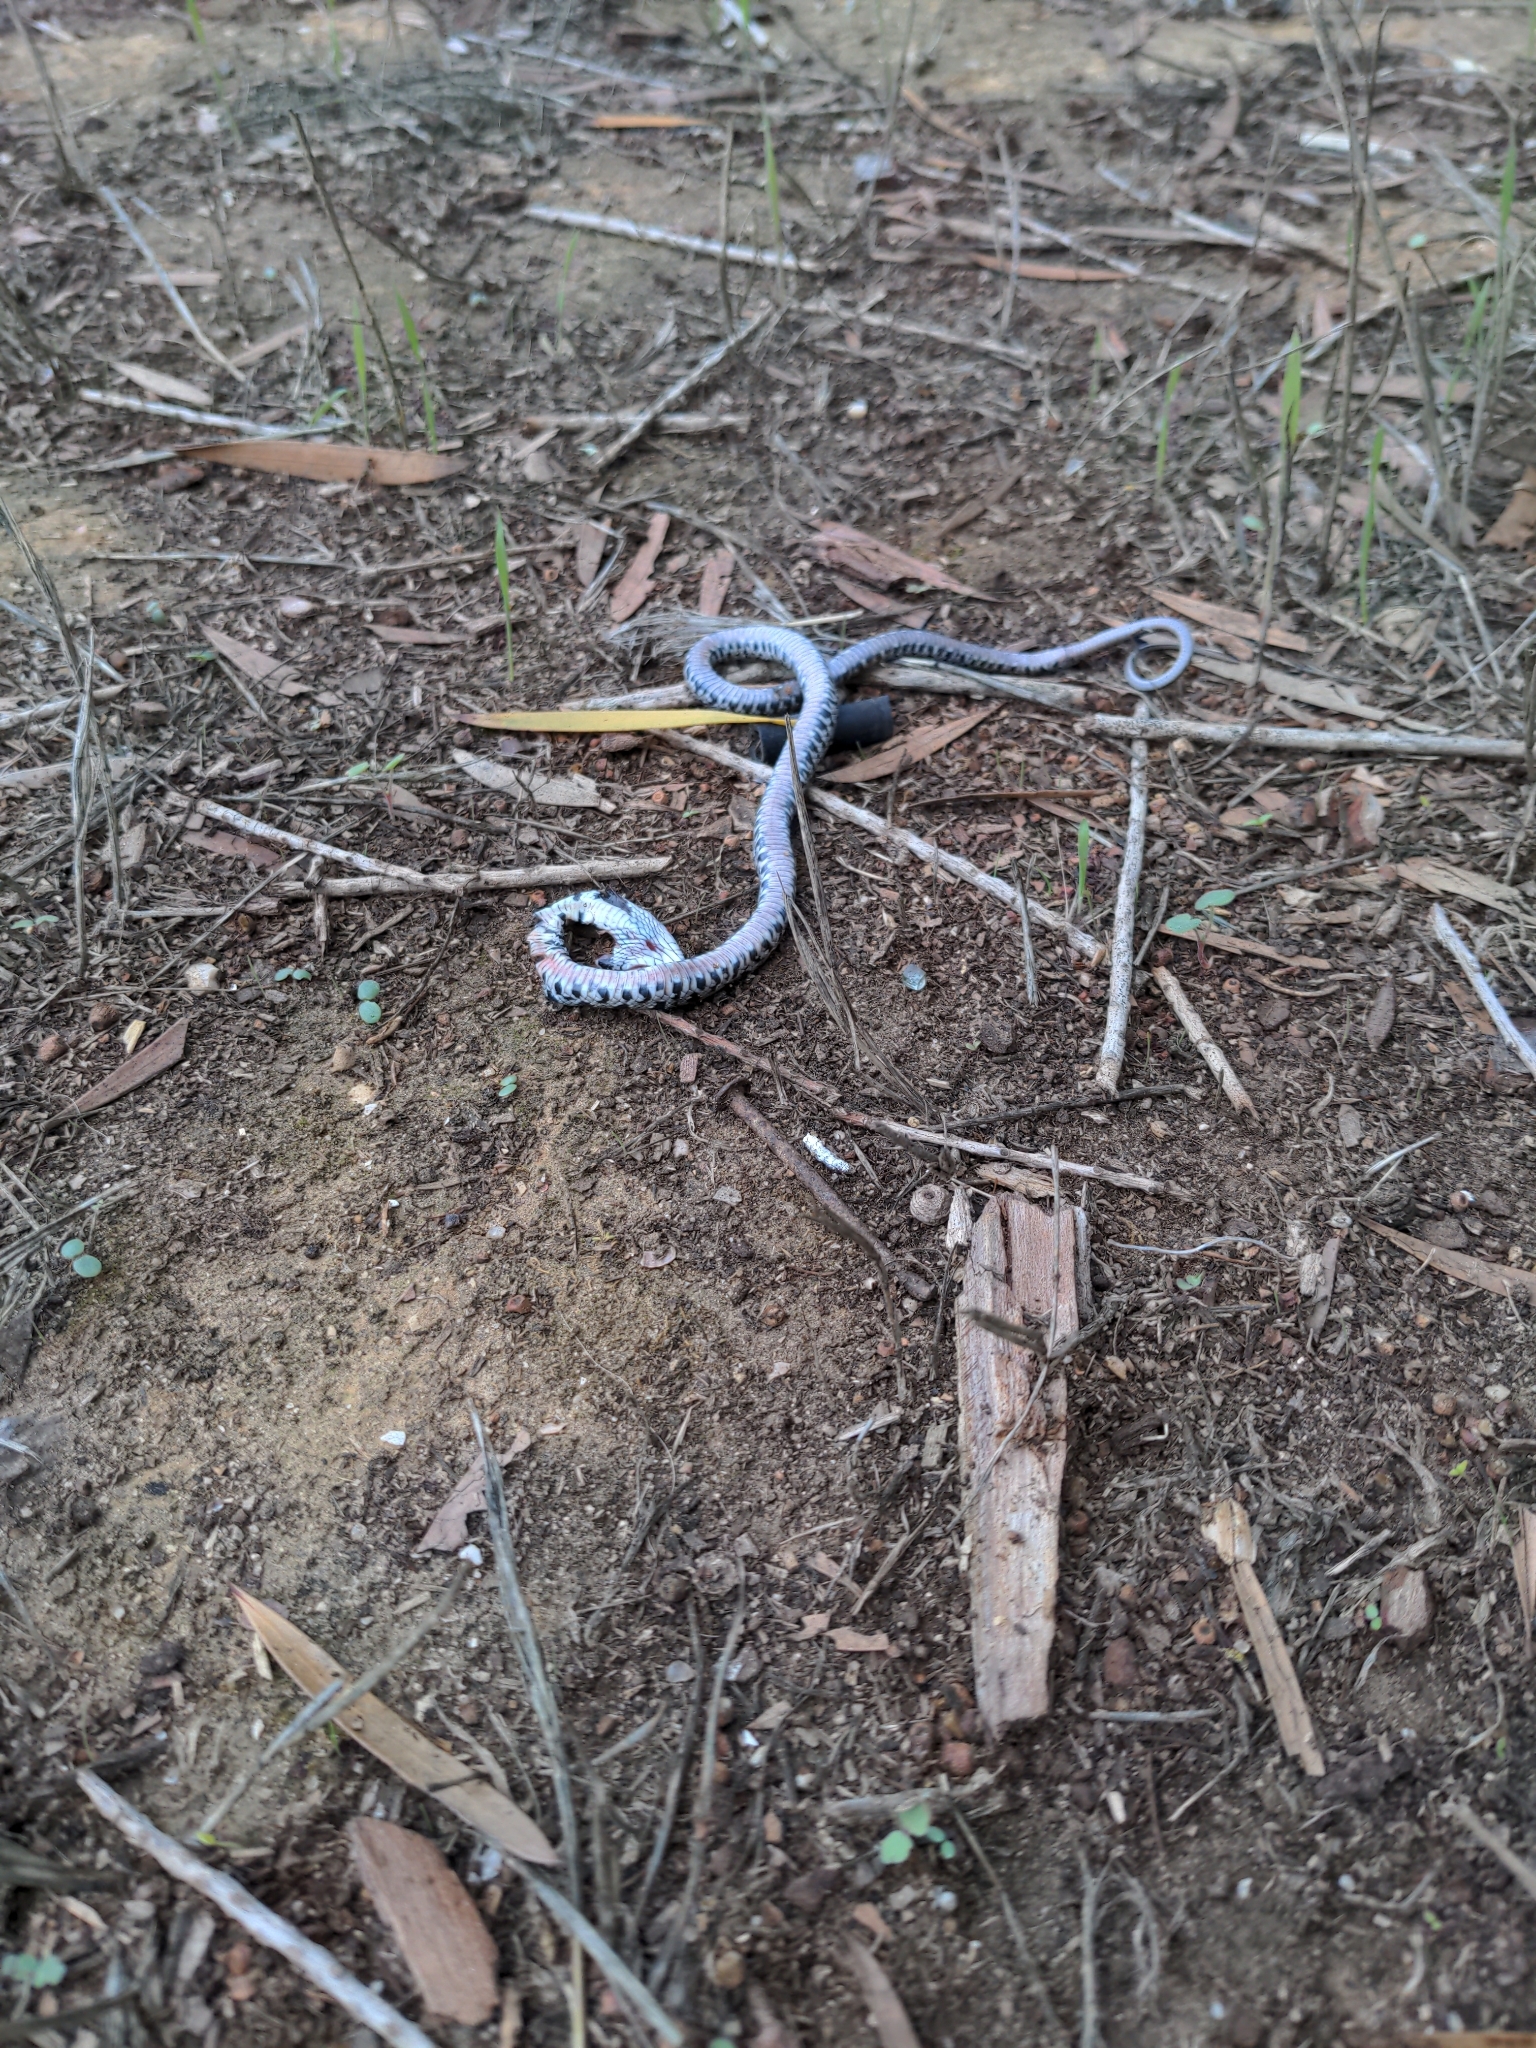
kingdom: Animalia
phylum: Chordata
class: Squamata
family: Colubridae
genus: Hemorrhois
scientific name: Hemorrhois hippocrepis
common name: Horseshoe whip snake
